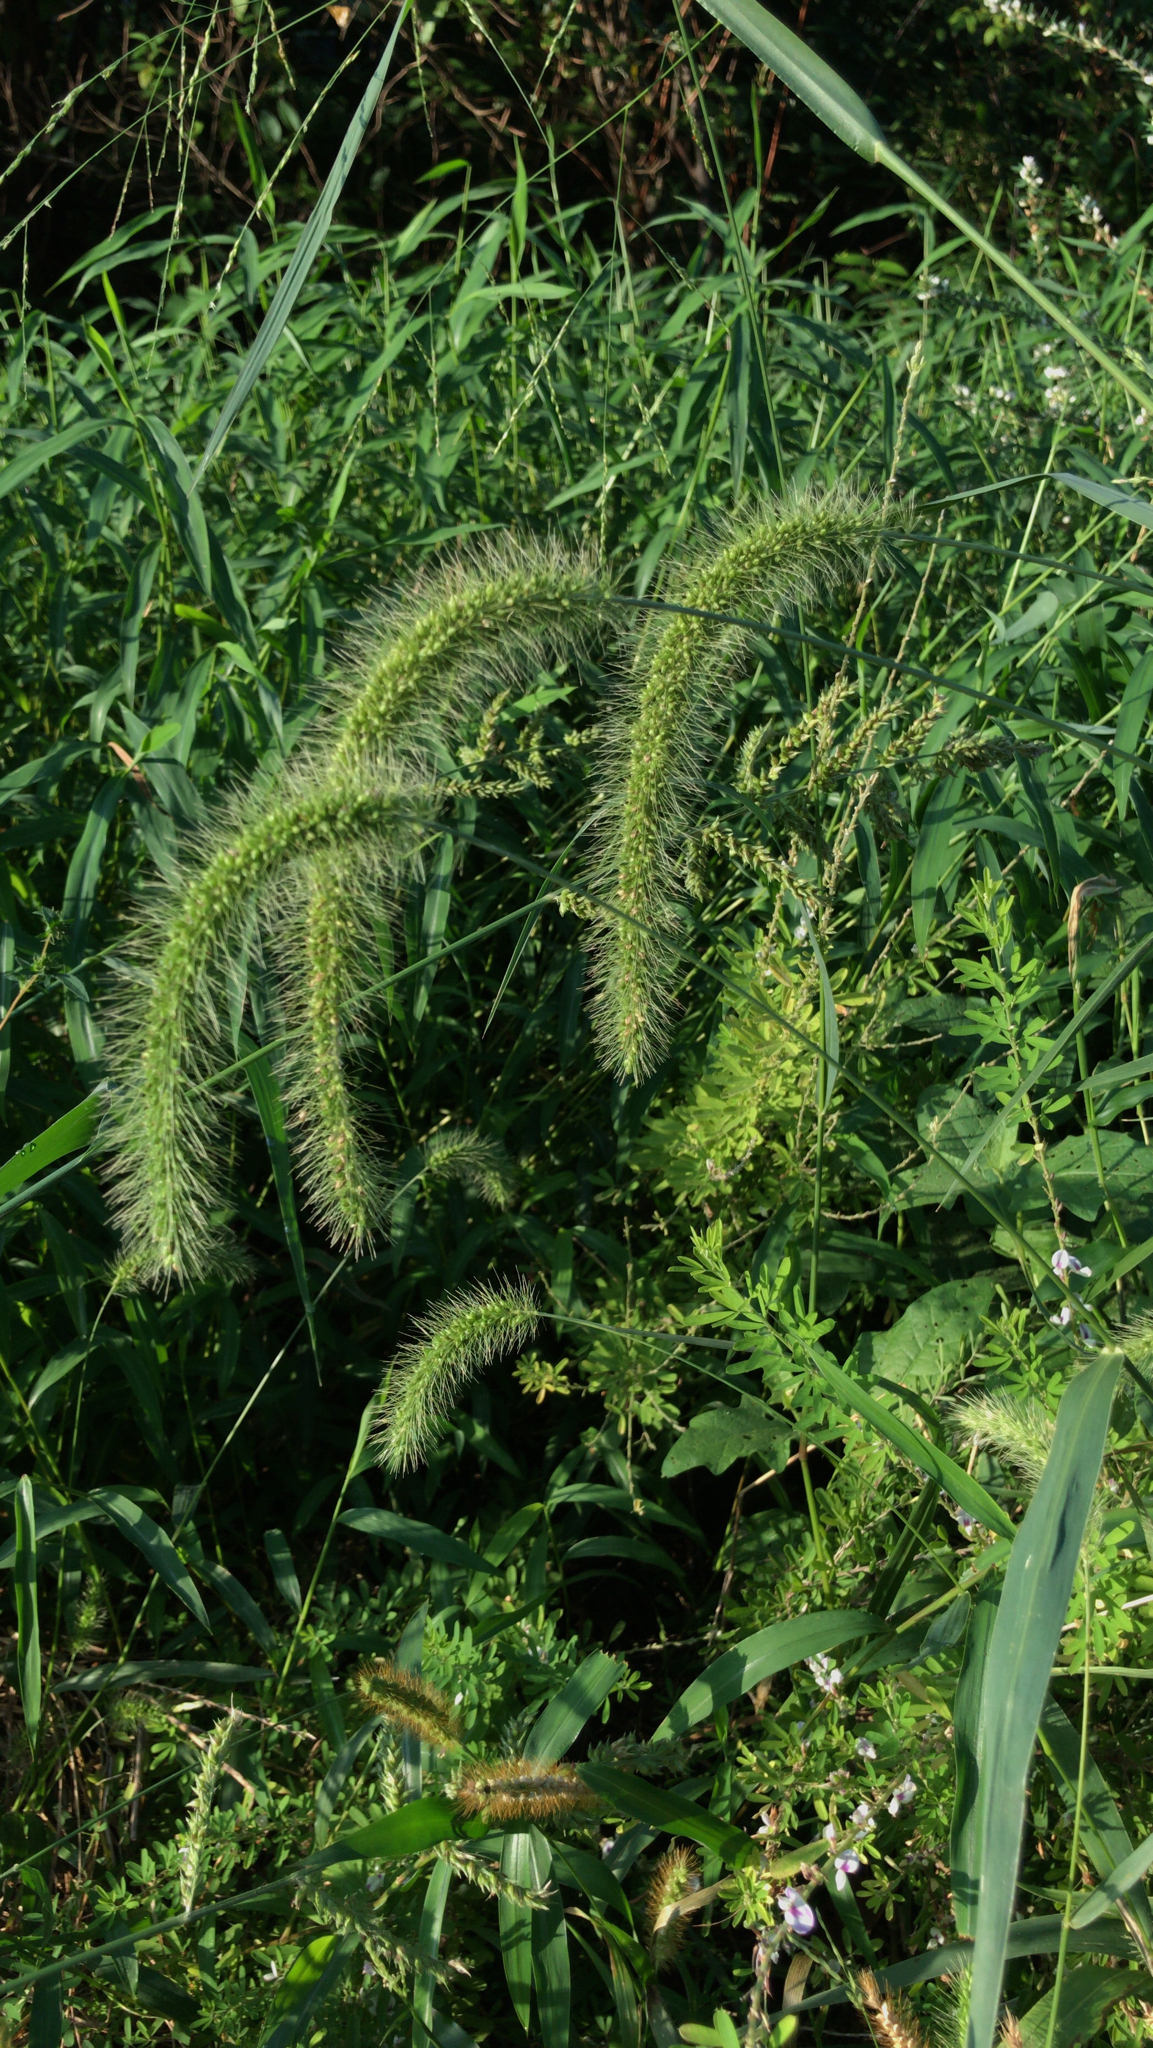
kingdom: Plantae
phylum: Tracheophyta
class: Liliopsida
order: Poales
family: Poaceae
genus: Setaria
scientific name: Setaria faberi
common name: Nodding bristle-grass
